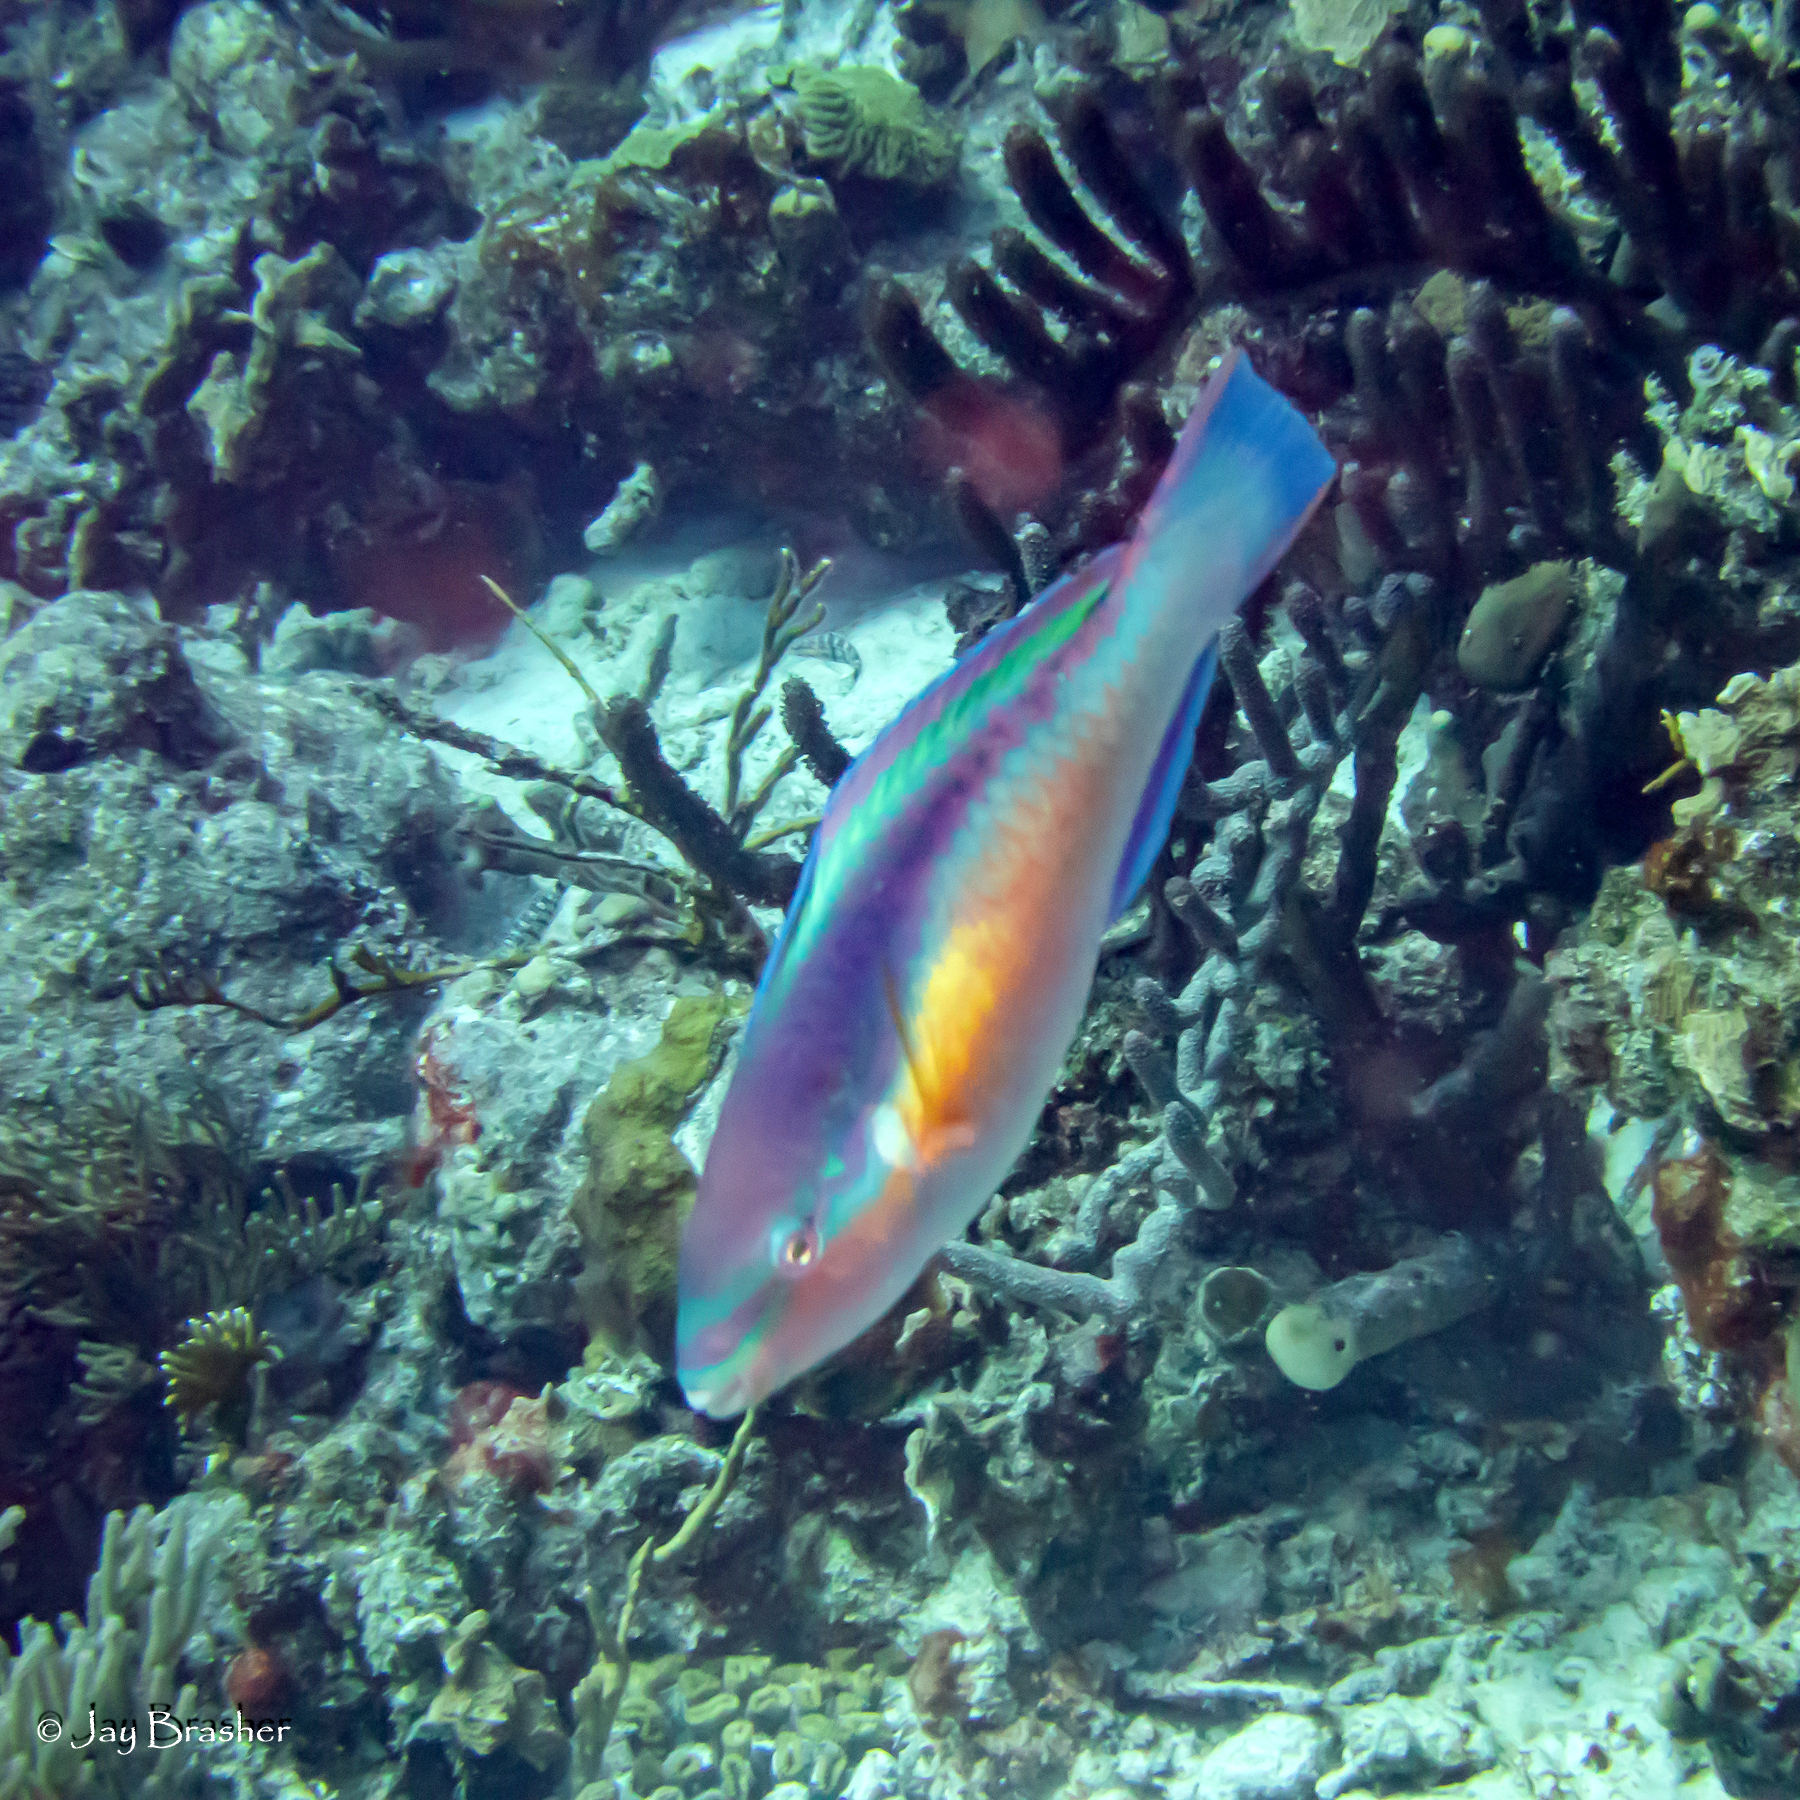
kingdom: Animalia
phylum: Chordata
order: Perciformes
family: Scaridae
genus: Scarus
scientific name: Scarus taeniopterus
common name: Princess parrotfish
